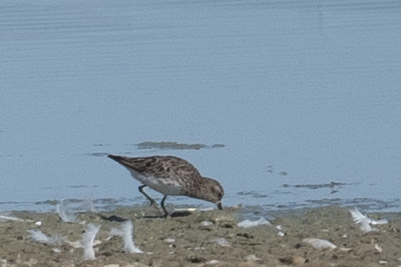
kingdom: Animalia
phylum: Chordata
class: Aves
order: Charadriiformes
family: Scolopacidae
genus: Calidris
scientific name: Calidris minutilla
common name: Least sandpiper
